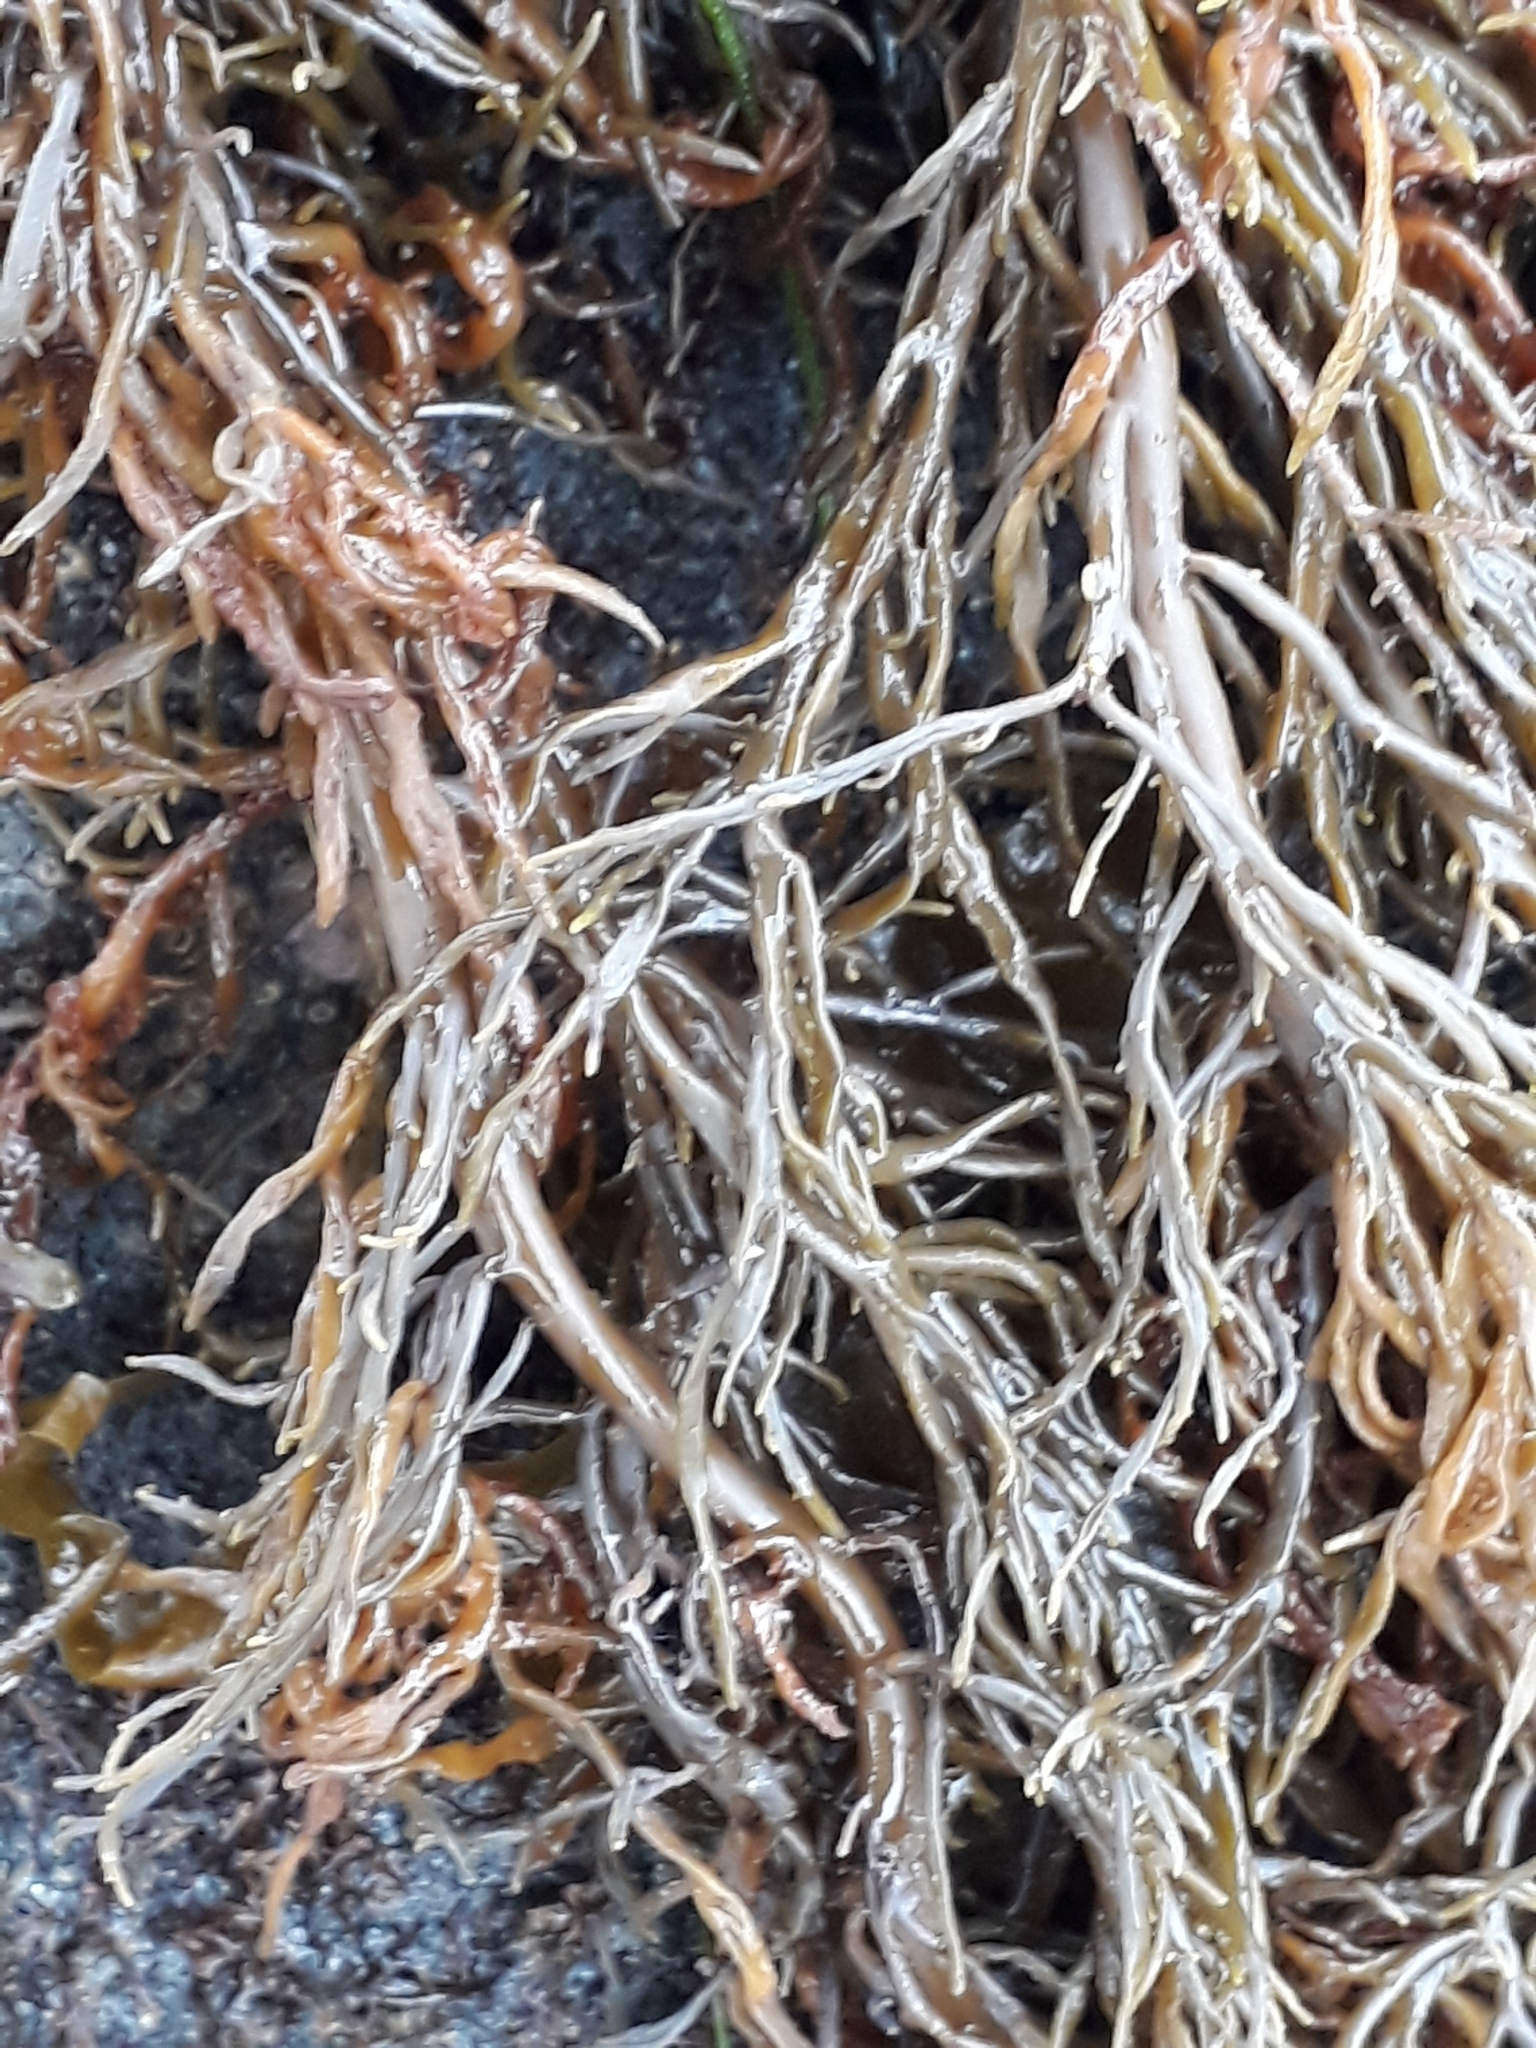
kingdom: Chromista
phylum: Ochrophyta
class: Phaeophyceae
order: Scytothamnales
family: Scytothamnaceae
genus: Scytothamnus
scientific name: Scytothamnus australis
